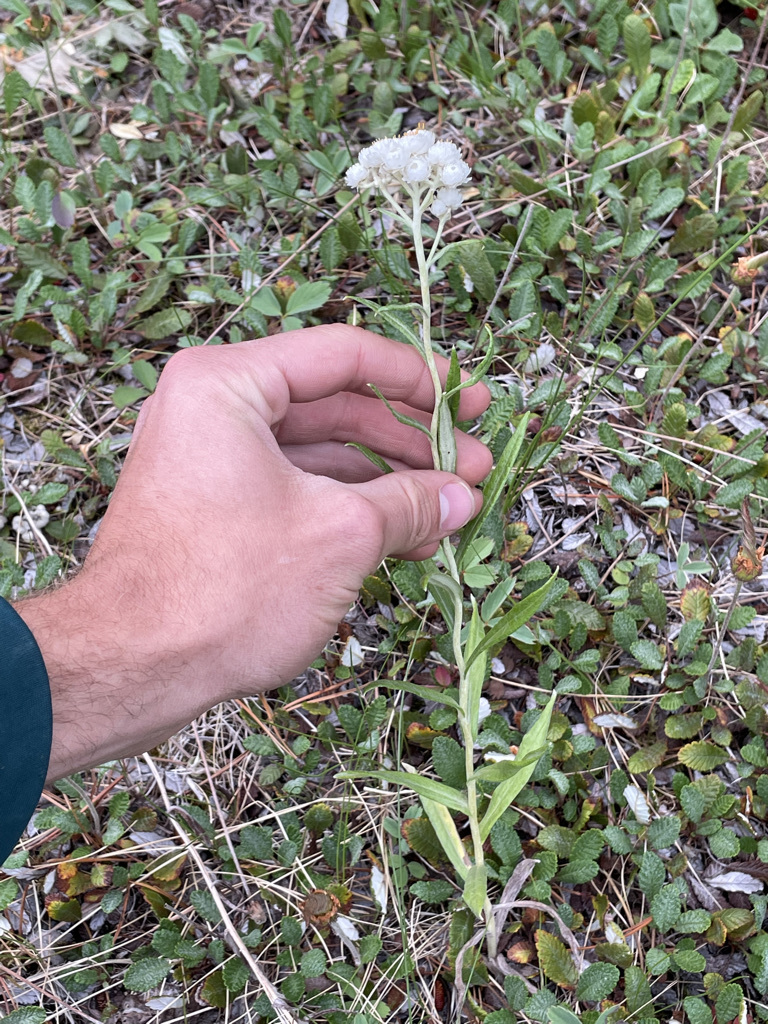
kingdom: Plantae
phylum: Tracheophyta
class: Magnoliopsida
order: Asterales
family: Asteraceae
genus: Anaphalis
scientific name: Anaphalis margaritacea
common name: Pearly everlasting
